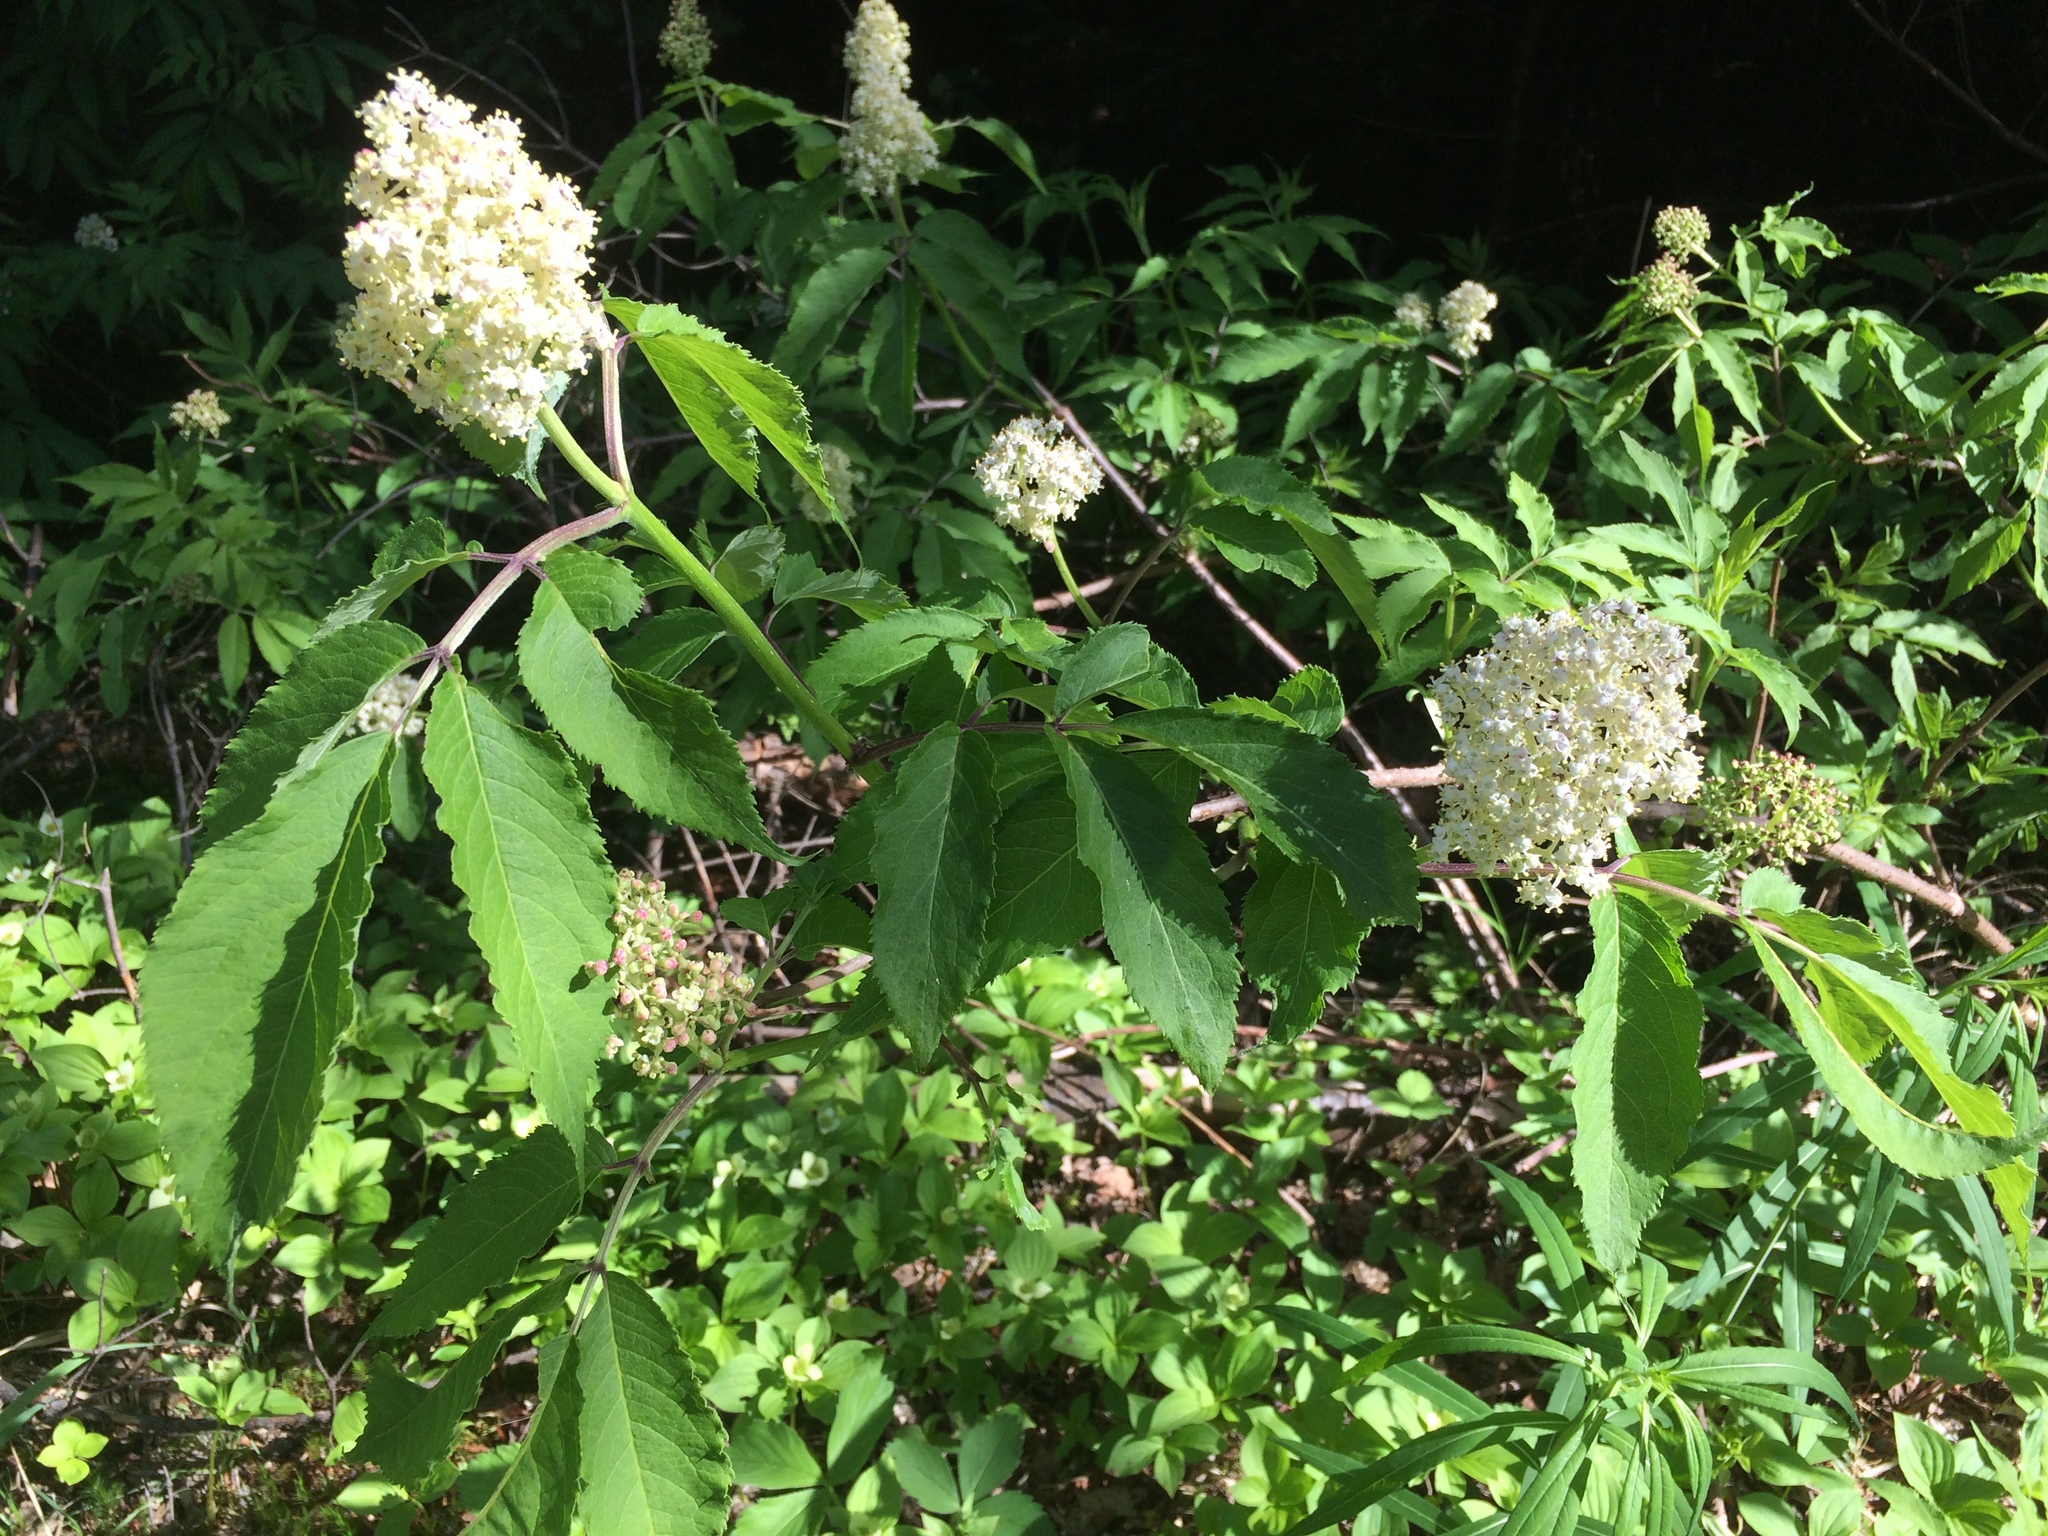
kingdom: Plantae
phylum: Tracheophyta
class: Magnoliopsida
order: Dipsacales
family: Viburnaceae
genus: Sambucus
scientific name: Sambucus racemosa
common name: Red-berried elder
